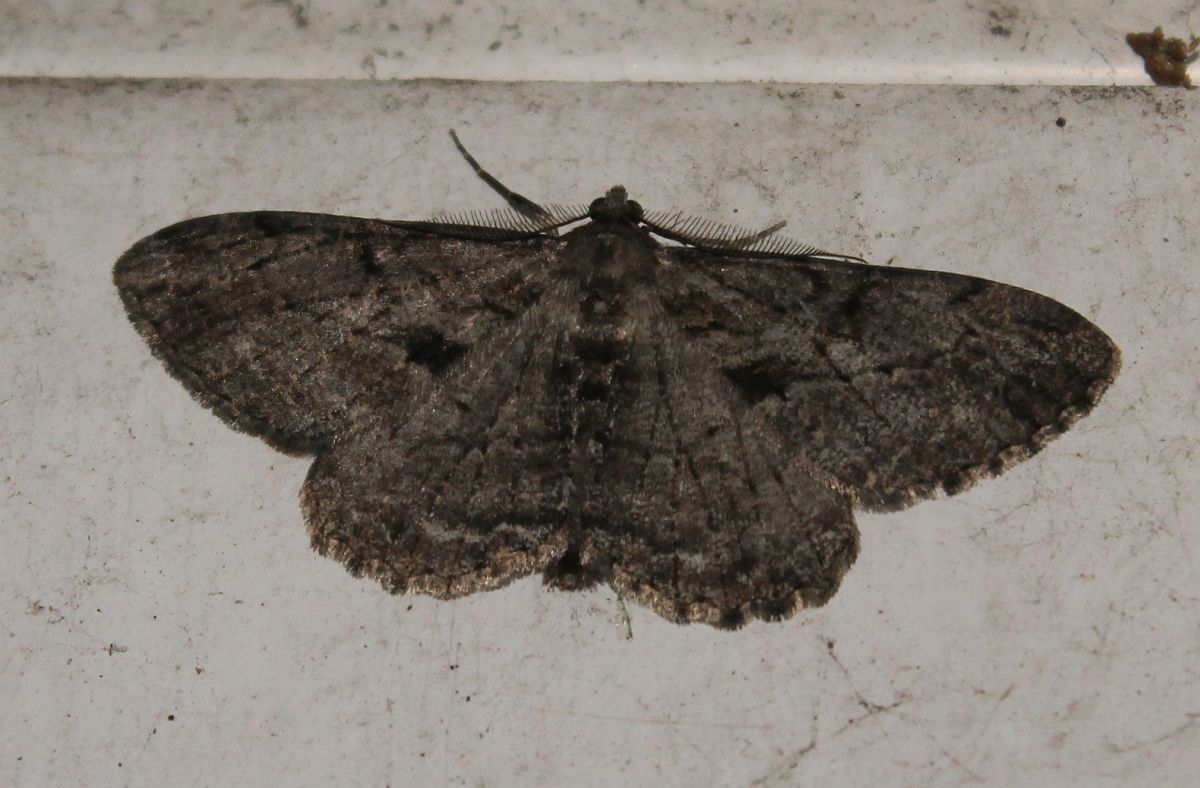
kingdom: Animalia
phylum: Arthropoda
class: Insecta
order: Lepidoptera
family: Geometridae
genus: Peribatodes
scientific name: Peribatodes rhomboidaria
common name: Willow beauty
